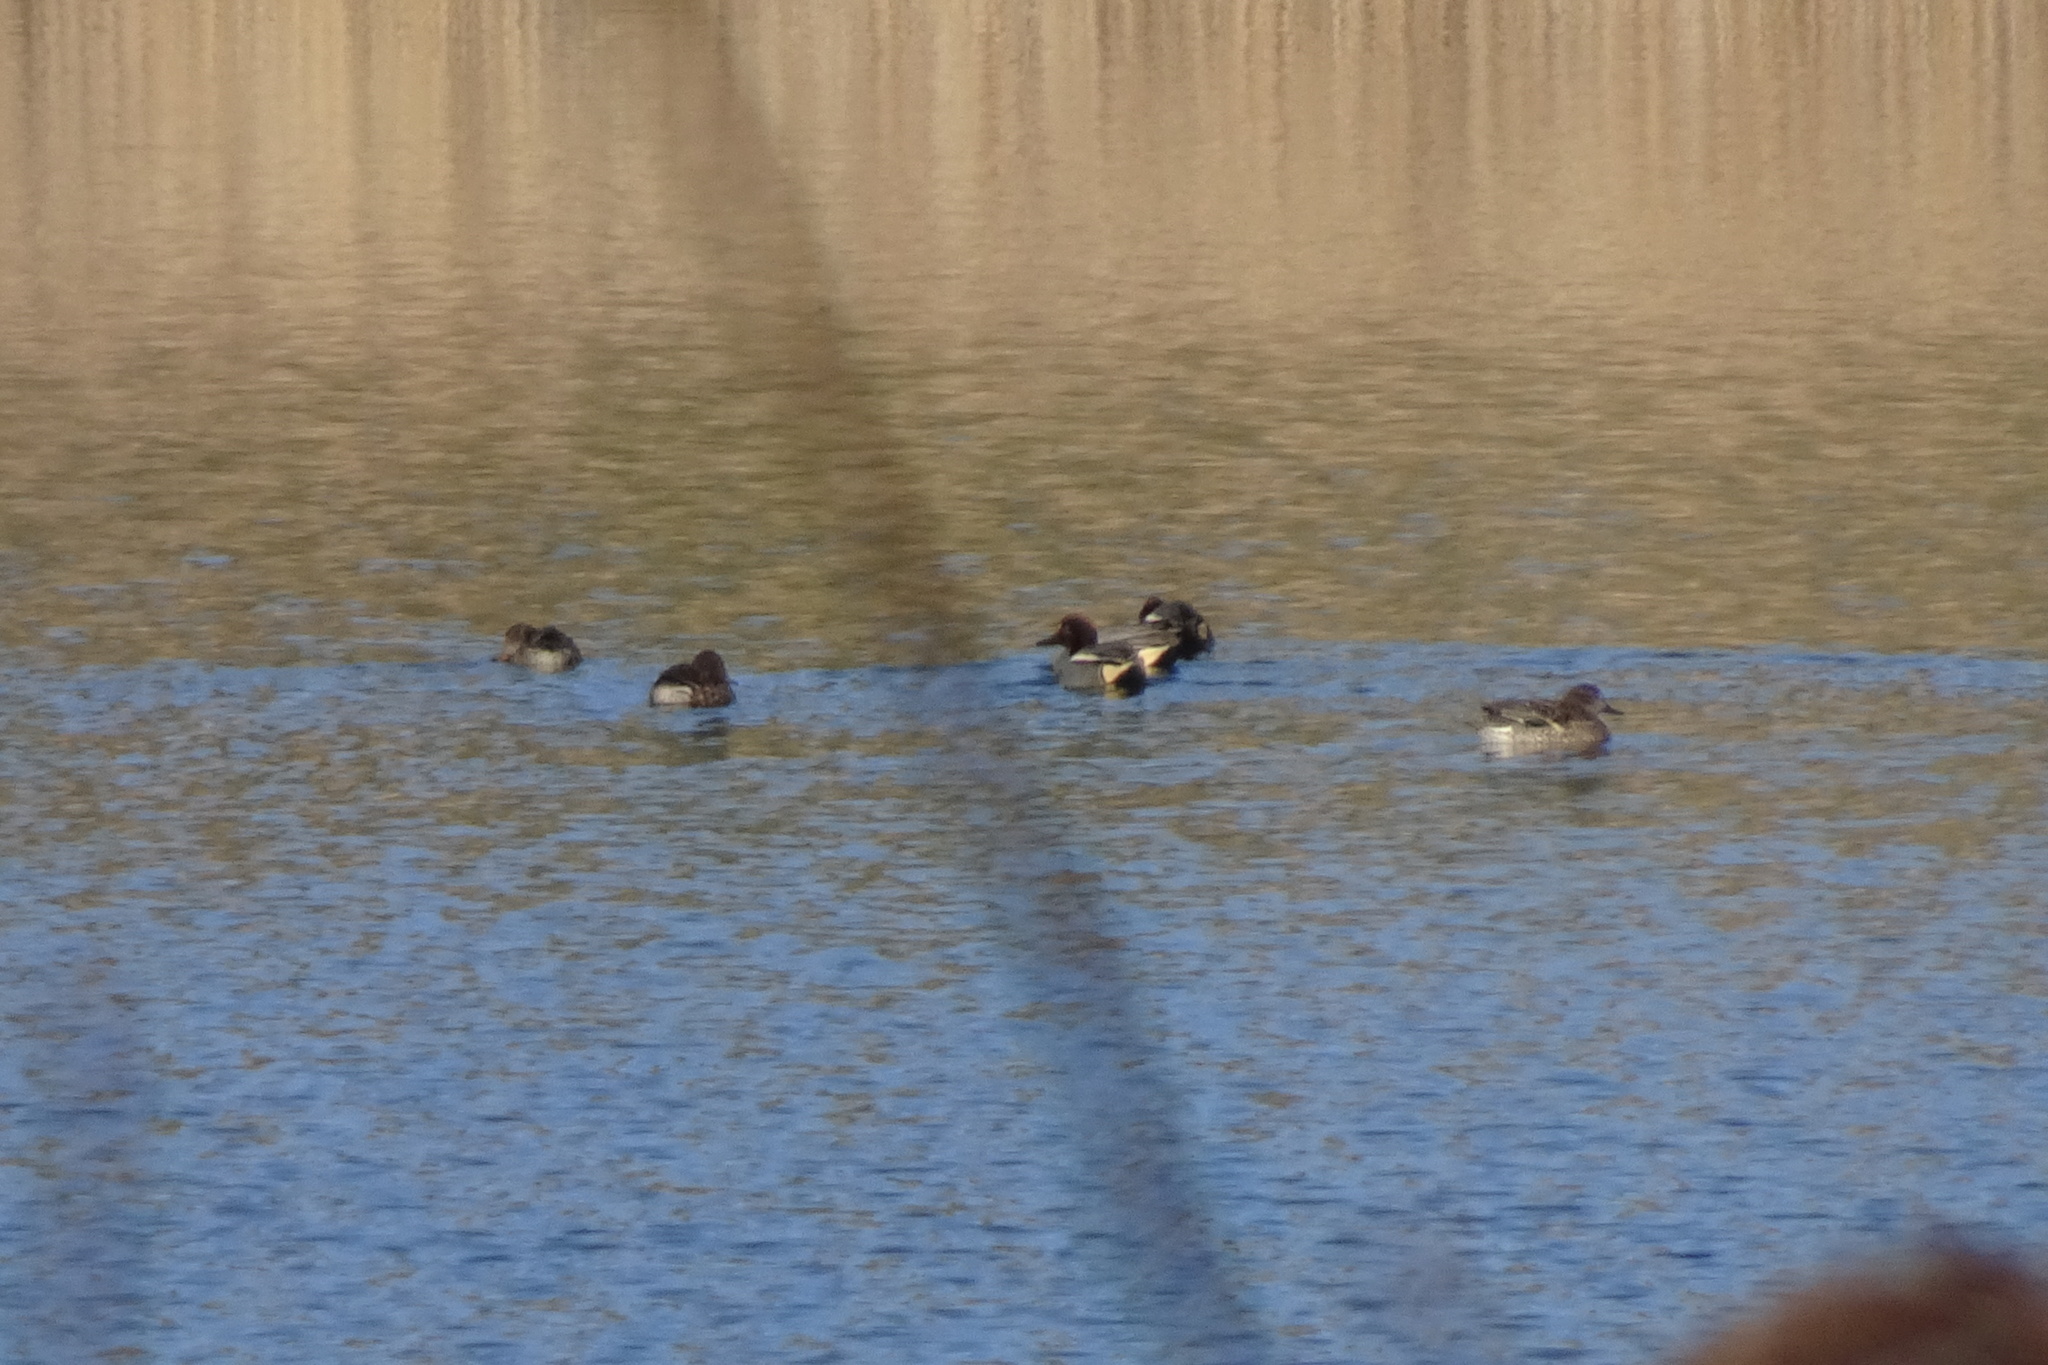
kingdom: Animalia
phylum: Chordata
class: Aves
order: Anseriformes
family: Anatidae
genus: Anas
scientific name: Anas crecca
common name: Eurasian teal
